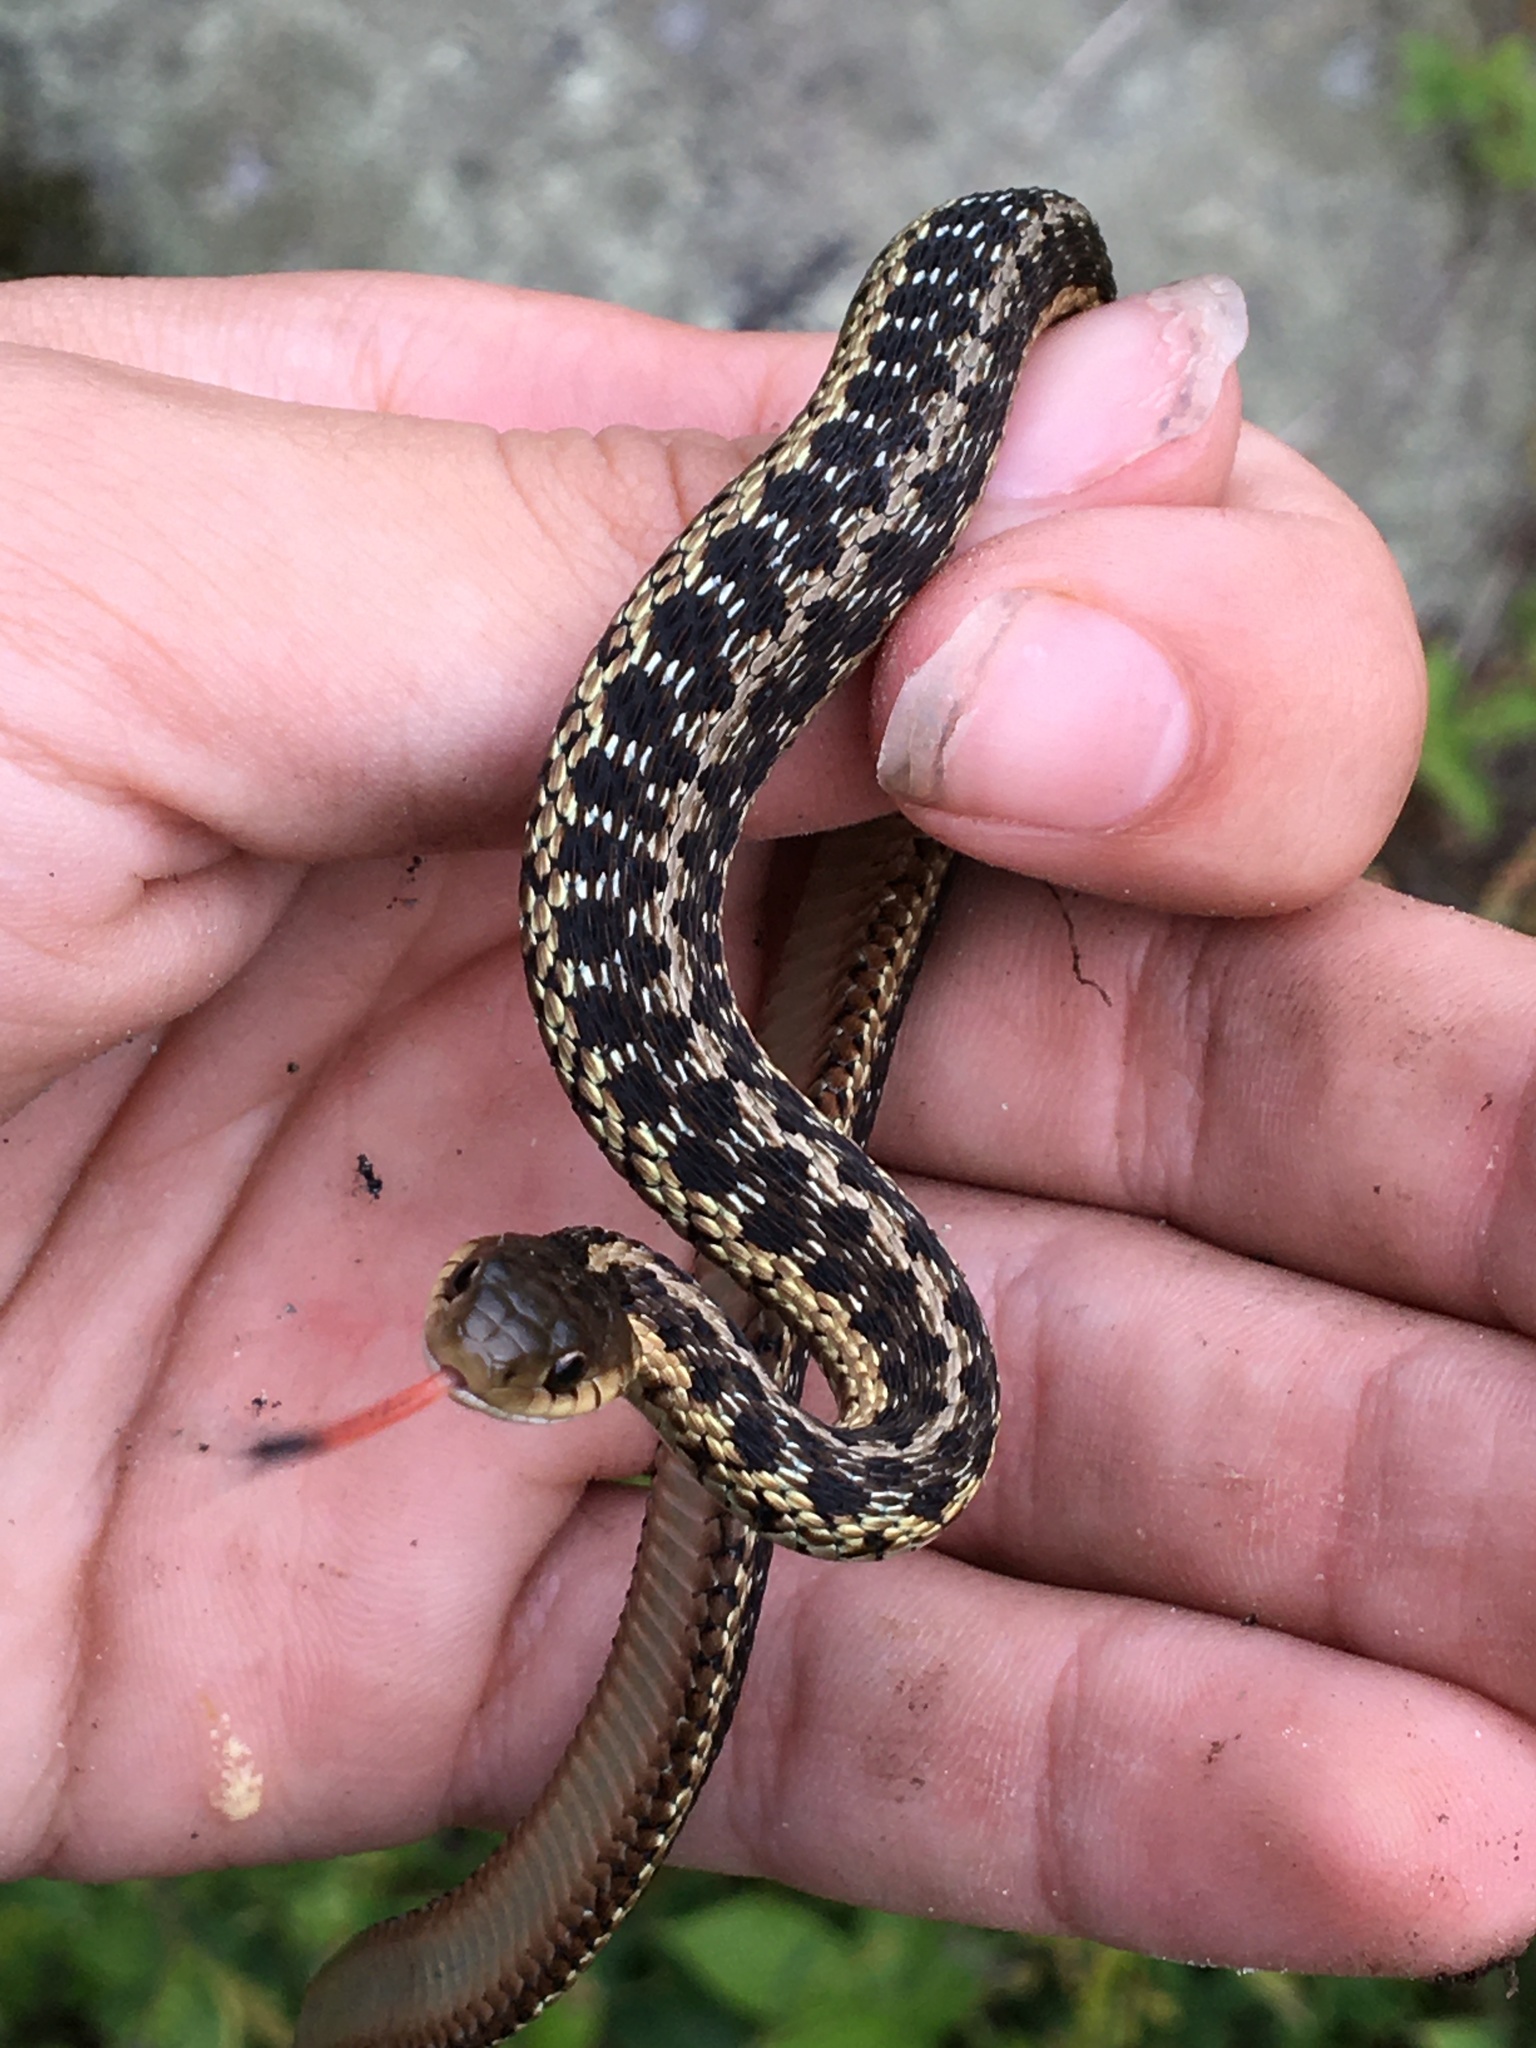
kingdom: Animalia
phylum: Chordata
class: Squamata
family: Colubridae
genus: Thamnophis
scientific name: Thamnophis sirtalis
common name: Common garter snake
